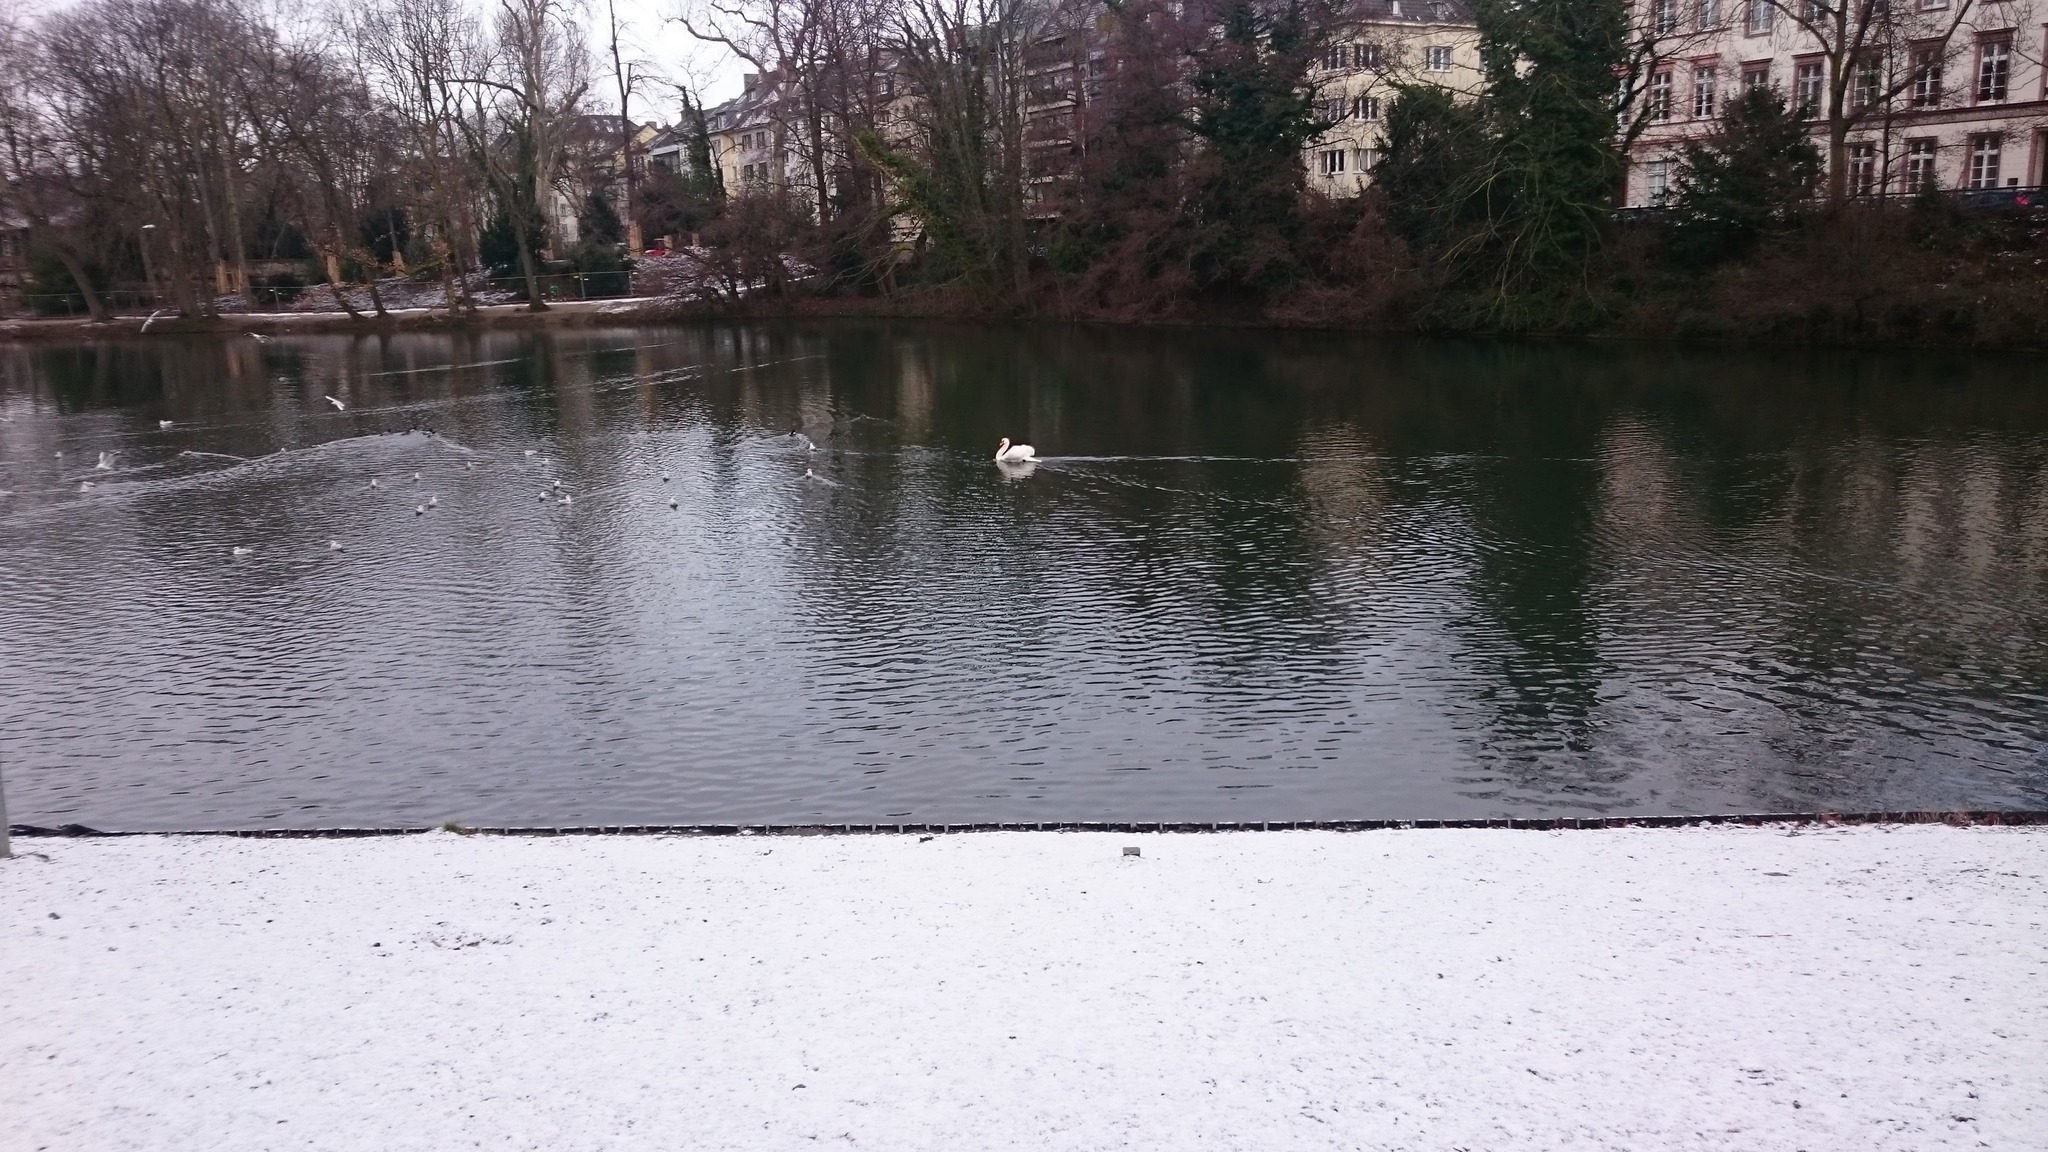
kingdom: Animalia
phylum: Chordata
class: Aves
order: Anseriformes
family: Anatidae
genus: Cygnus
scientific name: Cygnus olor
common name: Mute swan
